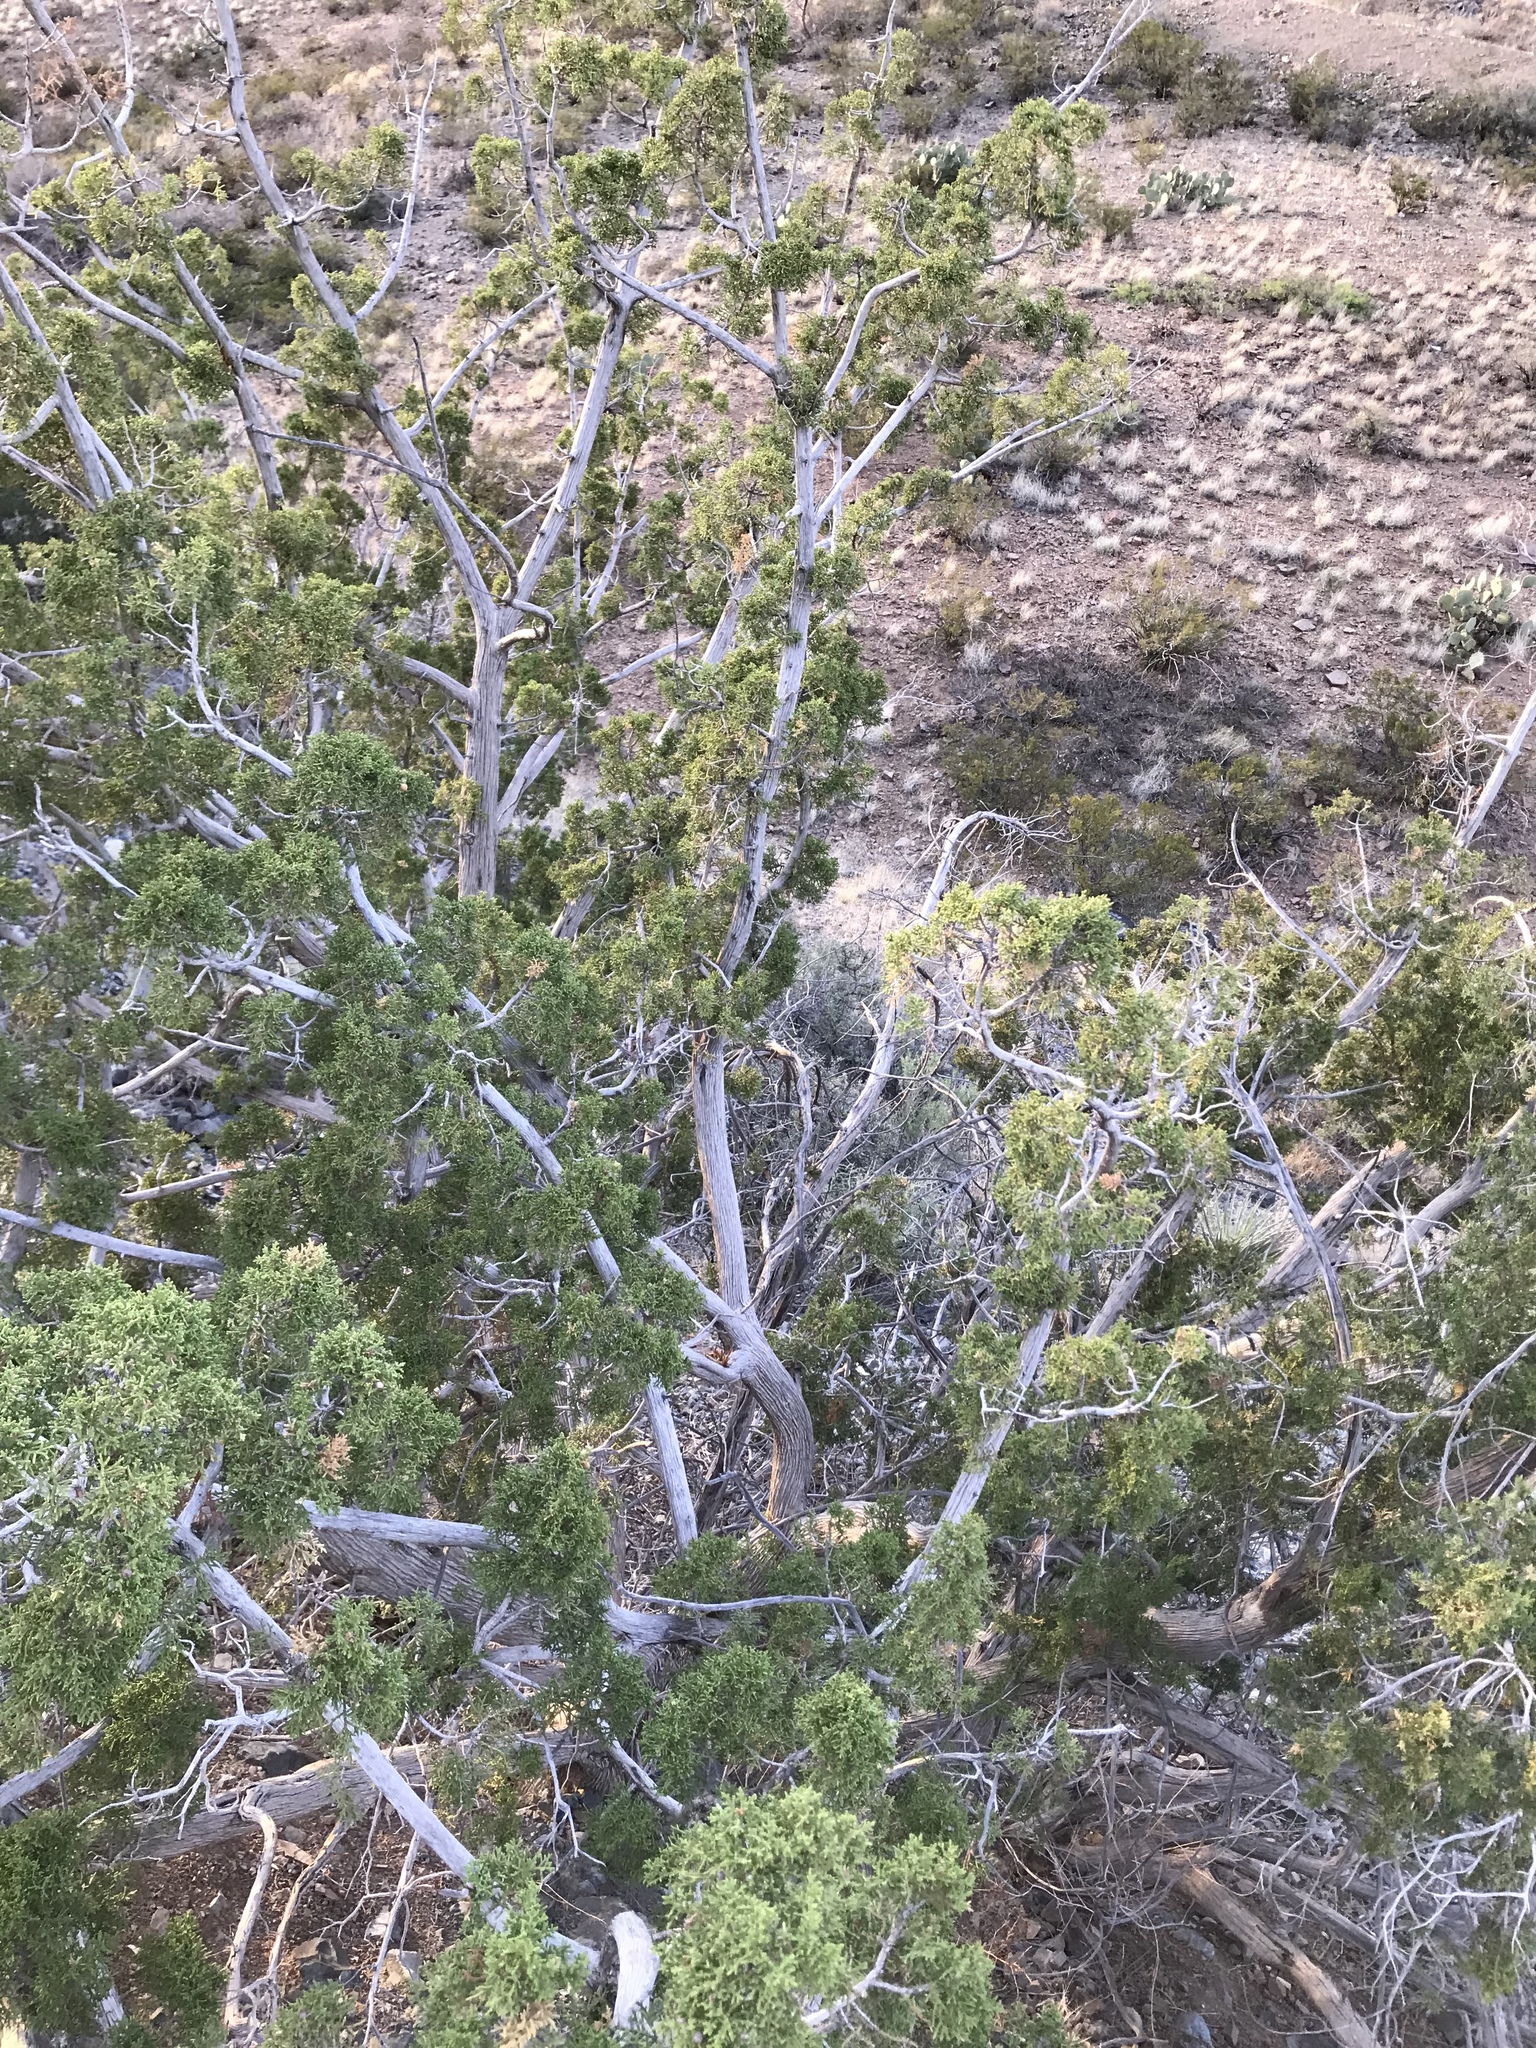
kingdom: Plantae
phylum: Tracheophyta
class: Pinopsida
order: Pinales
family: Cupressaceae
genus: Juniperus
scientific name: Juniperus monosperma
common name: One-seed juniper
